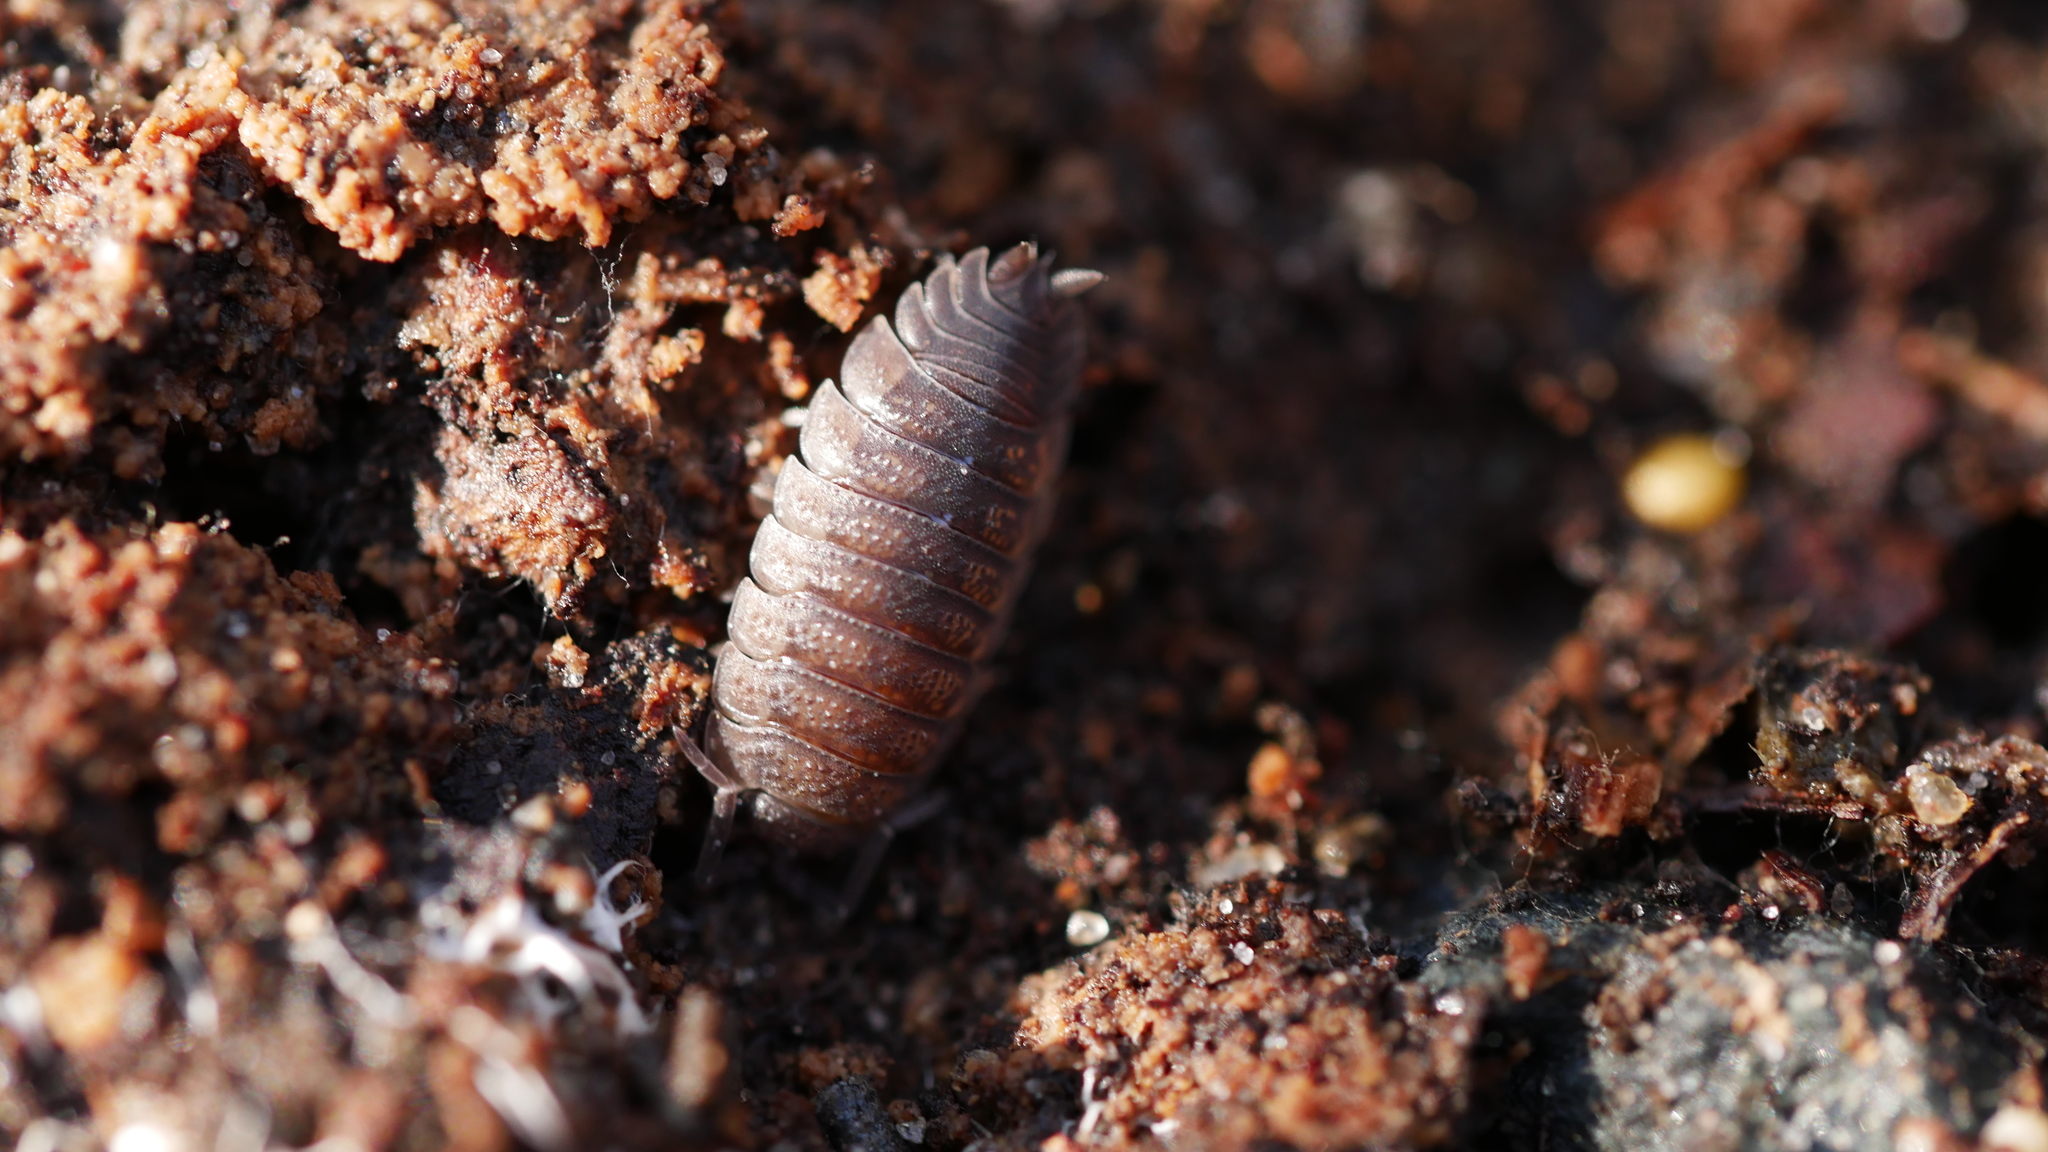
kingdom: Animalia
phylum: Arthropoda
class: Malacostraca
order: Isopoda
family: Porcellionidae
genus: Porcellio
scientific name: Porcellio scaber
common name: Common rough woodlouse
